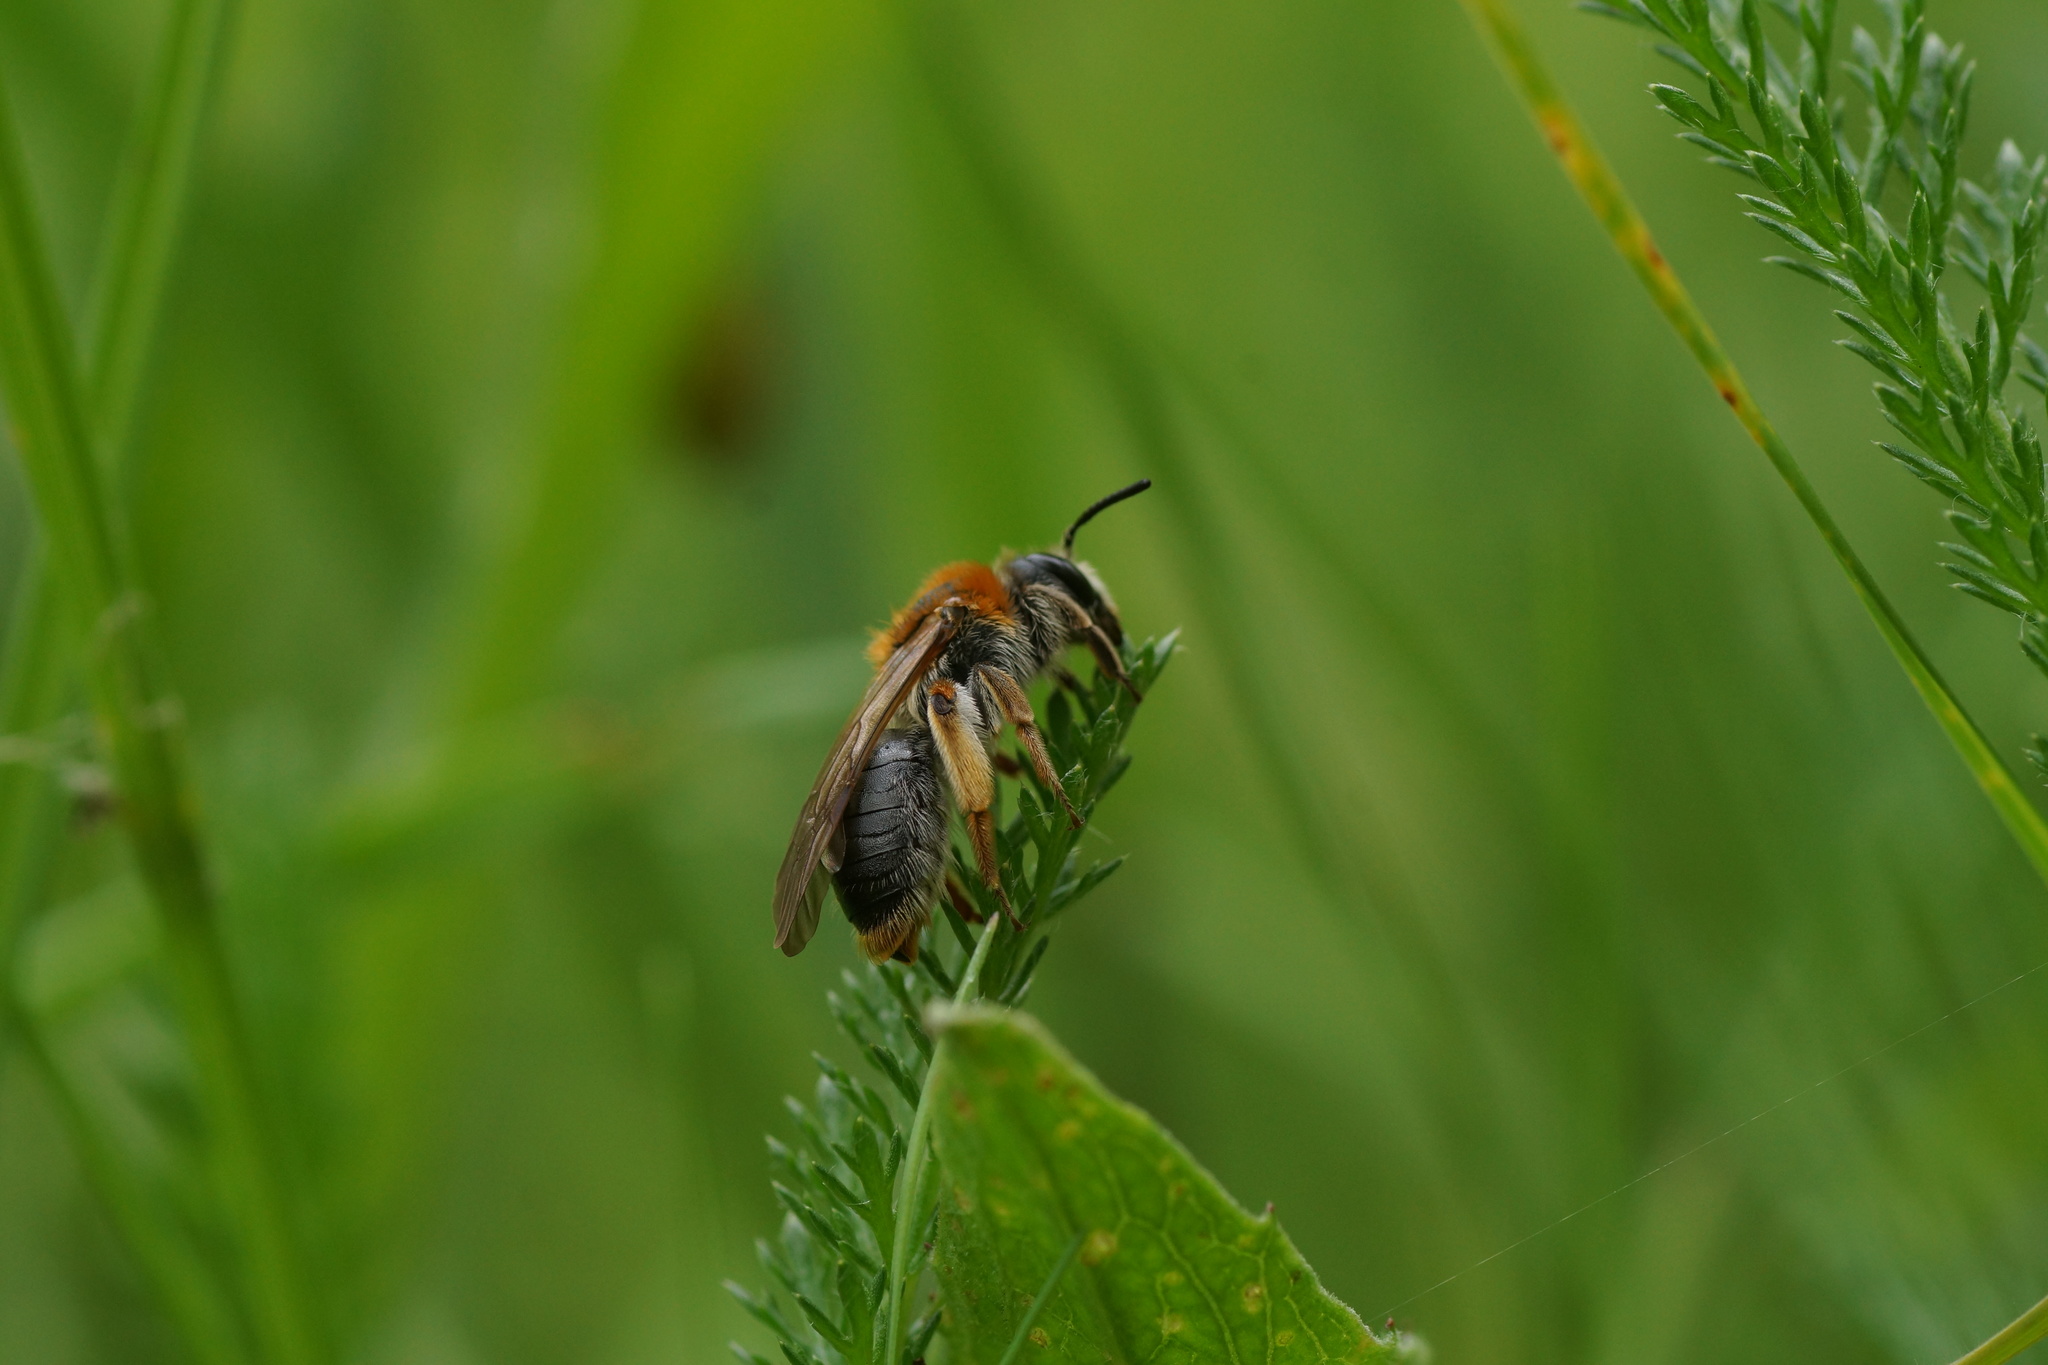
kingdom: Animalia
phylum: Arthropoda
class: Insecta
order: Hymenoptera
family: Andrenidae
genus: Andrena
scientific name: Andrena haemorrhoa
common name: Early mining bee
